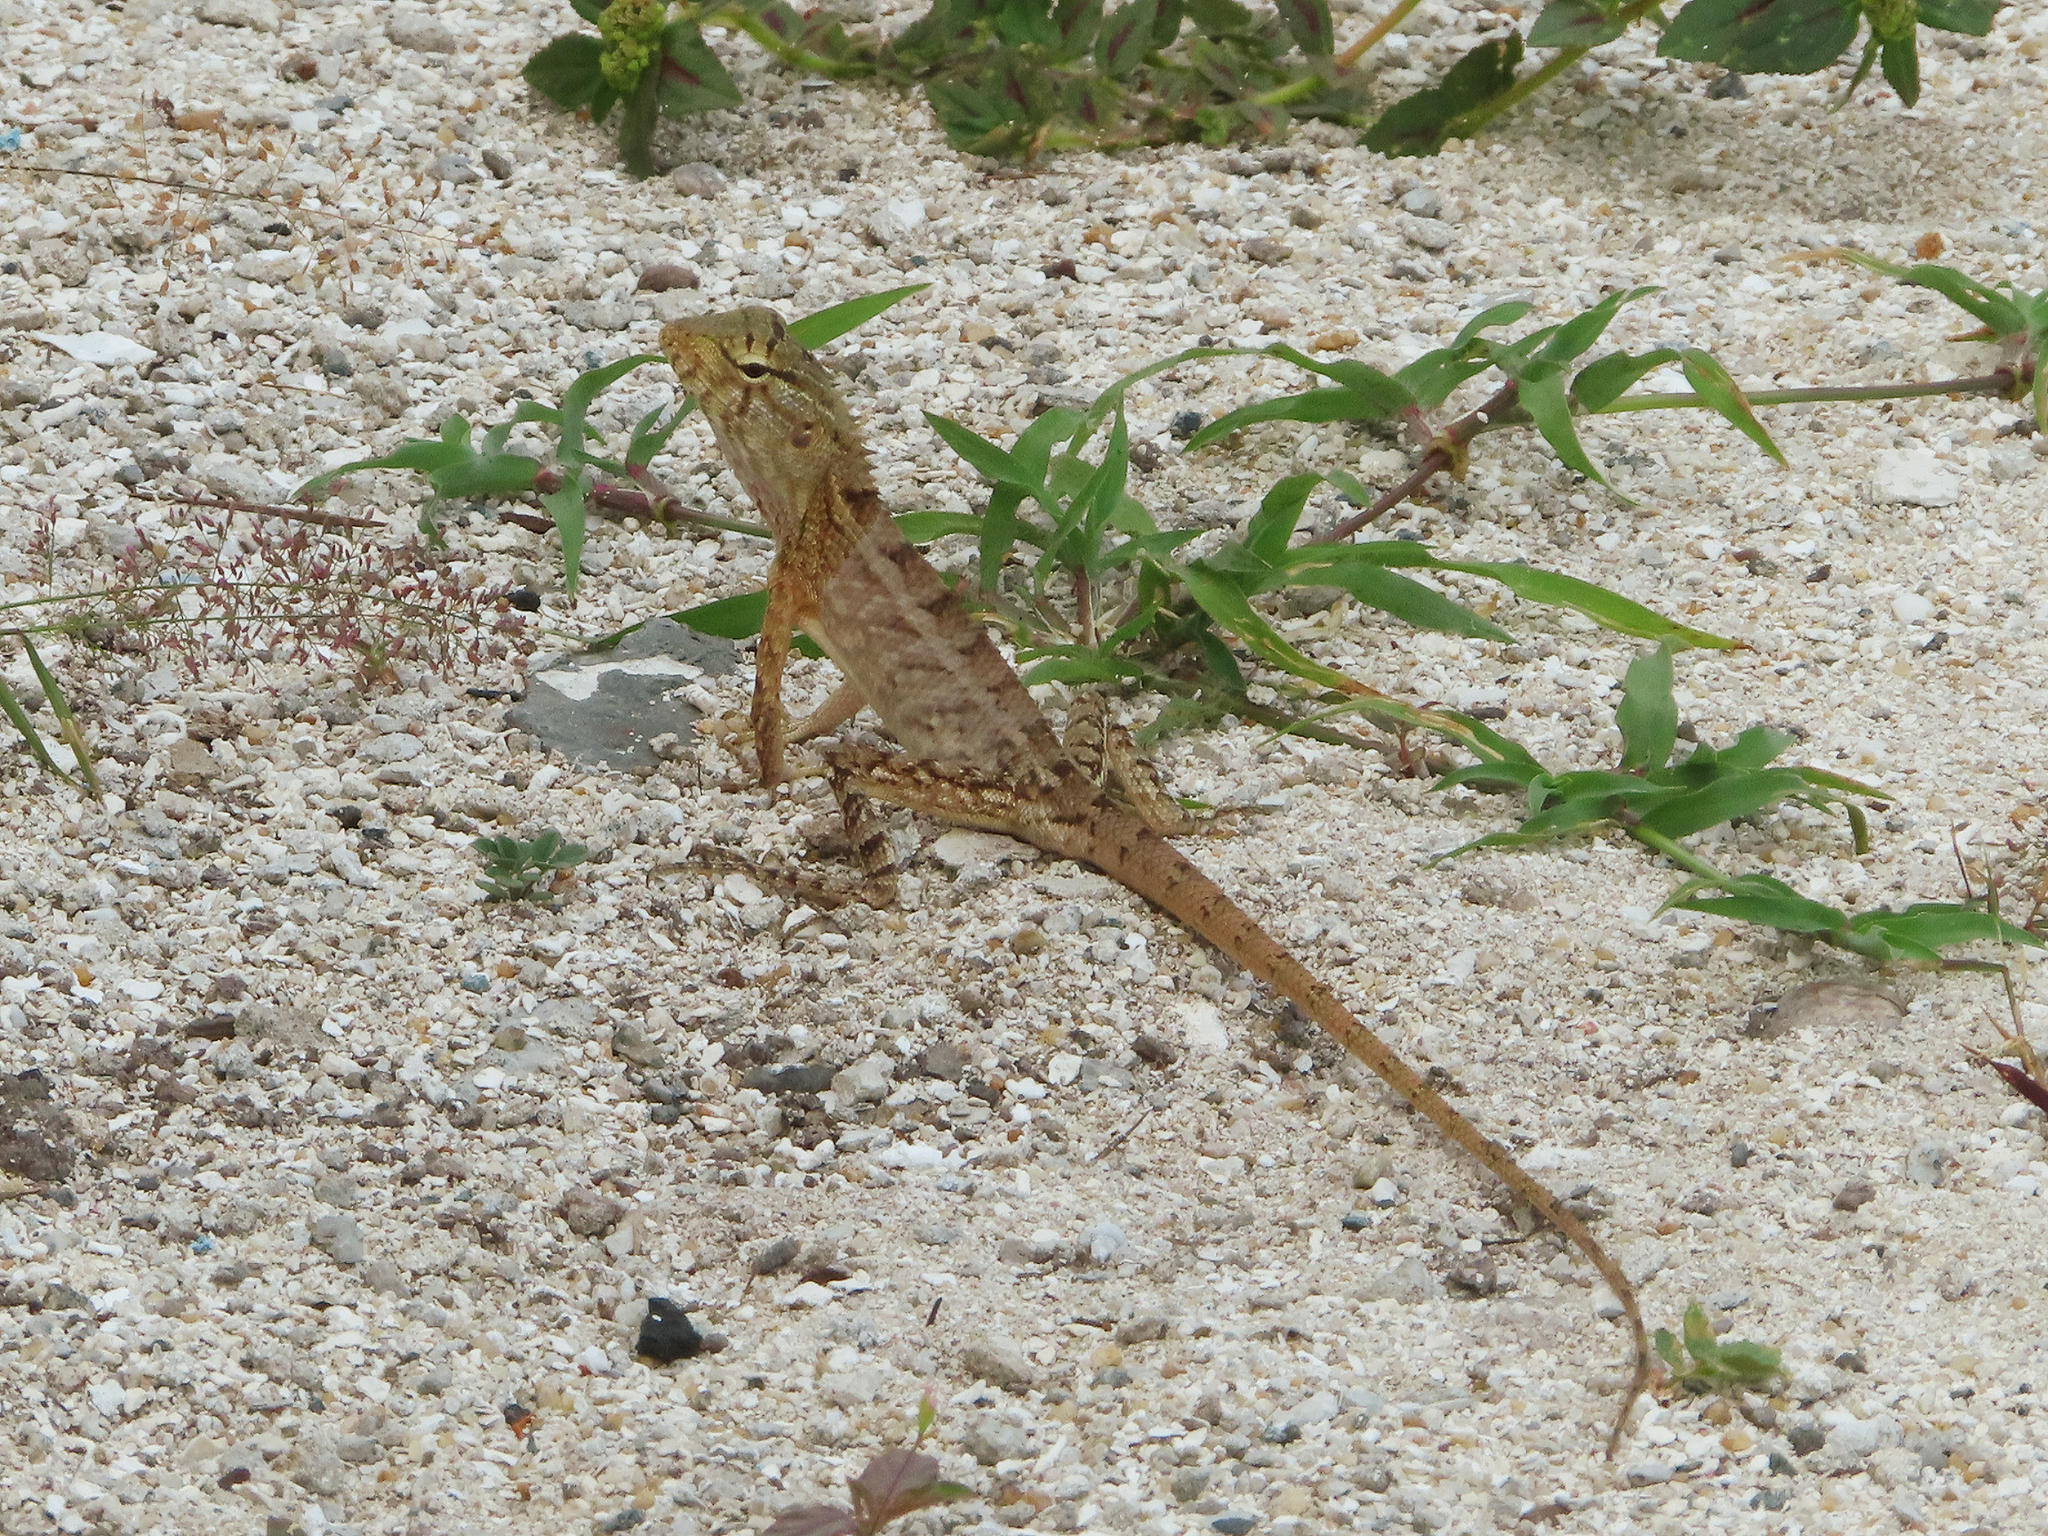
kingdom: Animalia
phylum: Chordata
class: Squamata
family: Agamidae
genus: Calotes
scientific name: Calotes versicolor
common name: Oriental garden lizard
